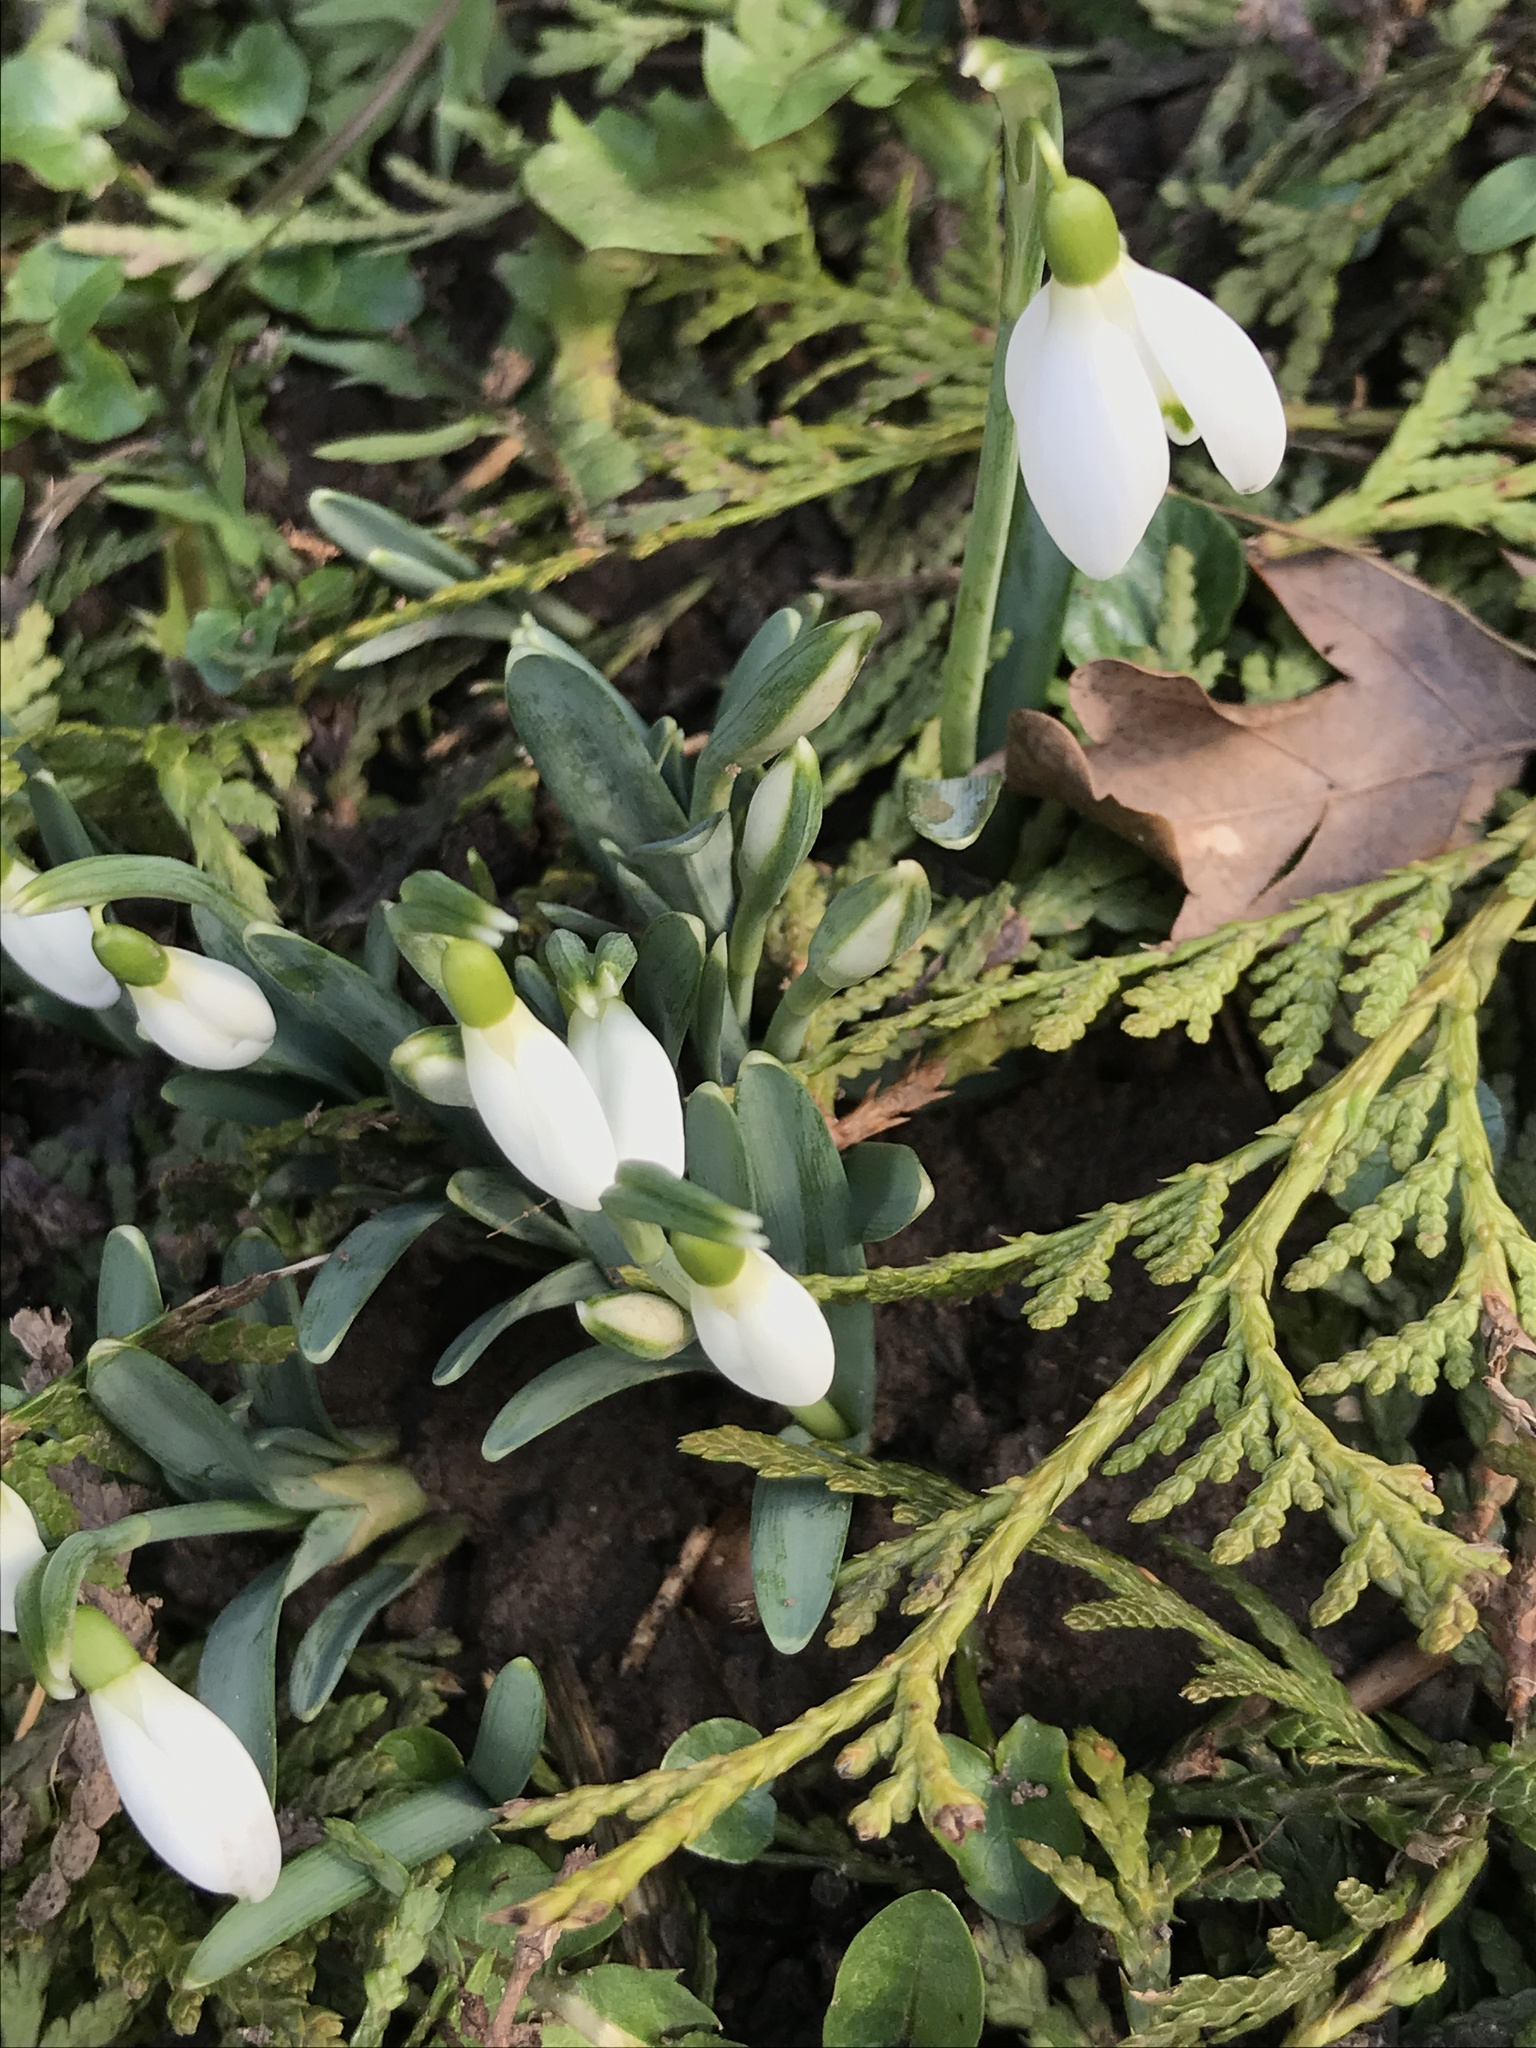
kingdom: Plantae
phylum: Tracheophyta
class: Liliopsida
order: Asparagales
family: Amaryllidaceae
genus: Galanthus
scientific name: Galanthus nivalis
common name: Snowdrop
